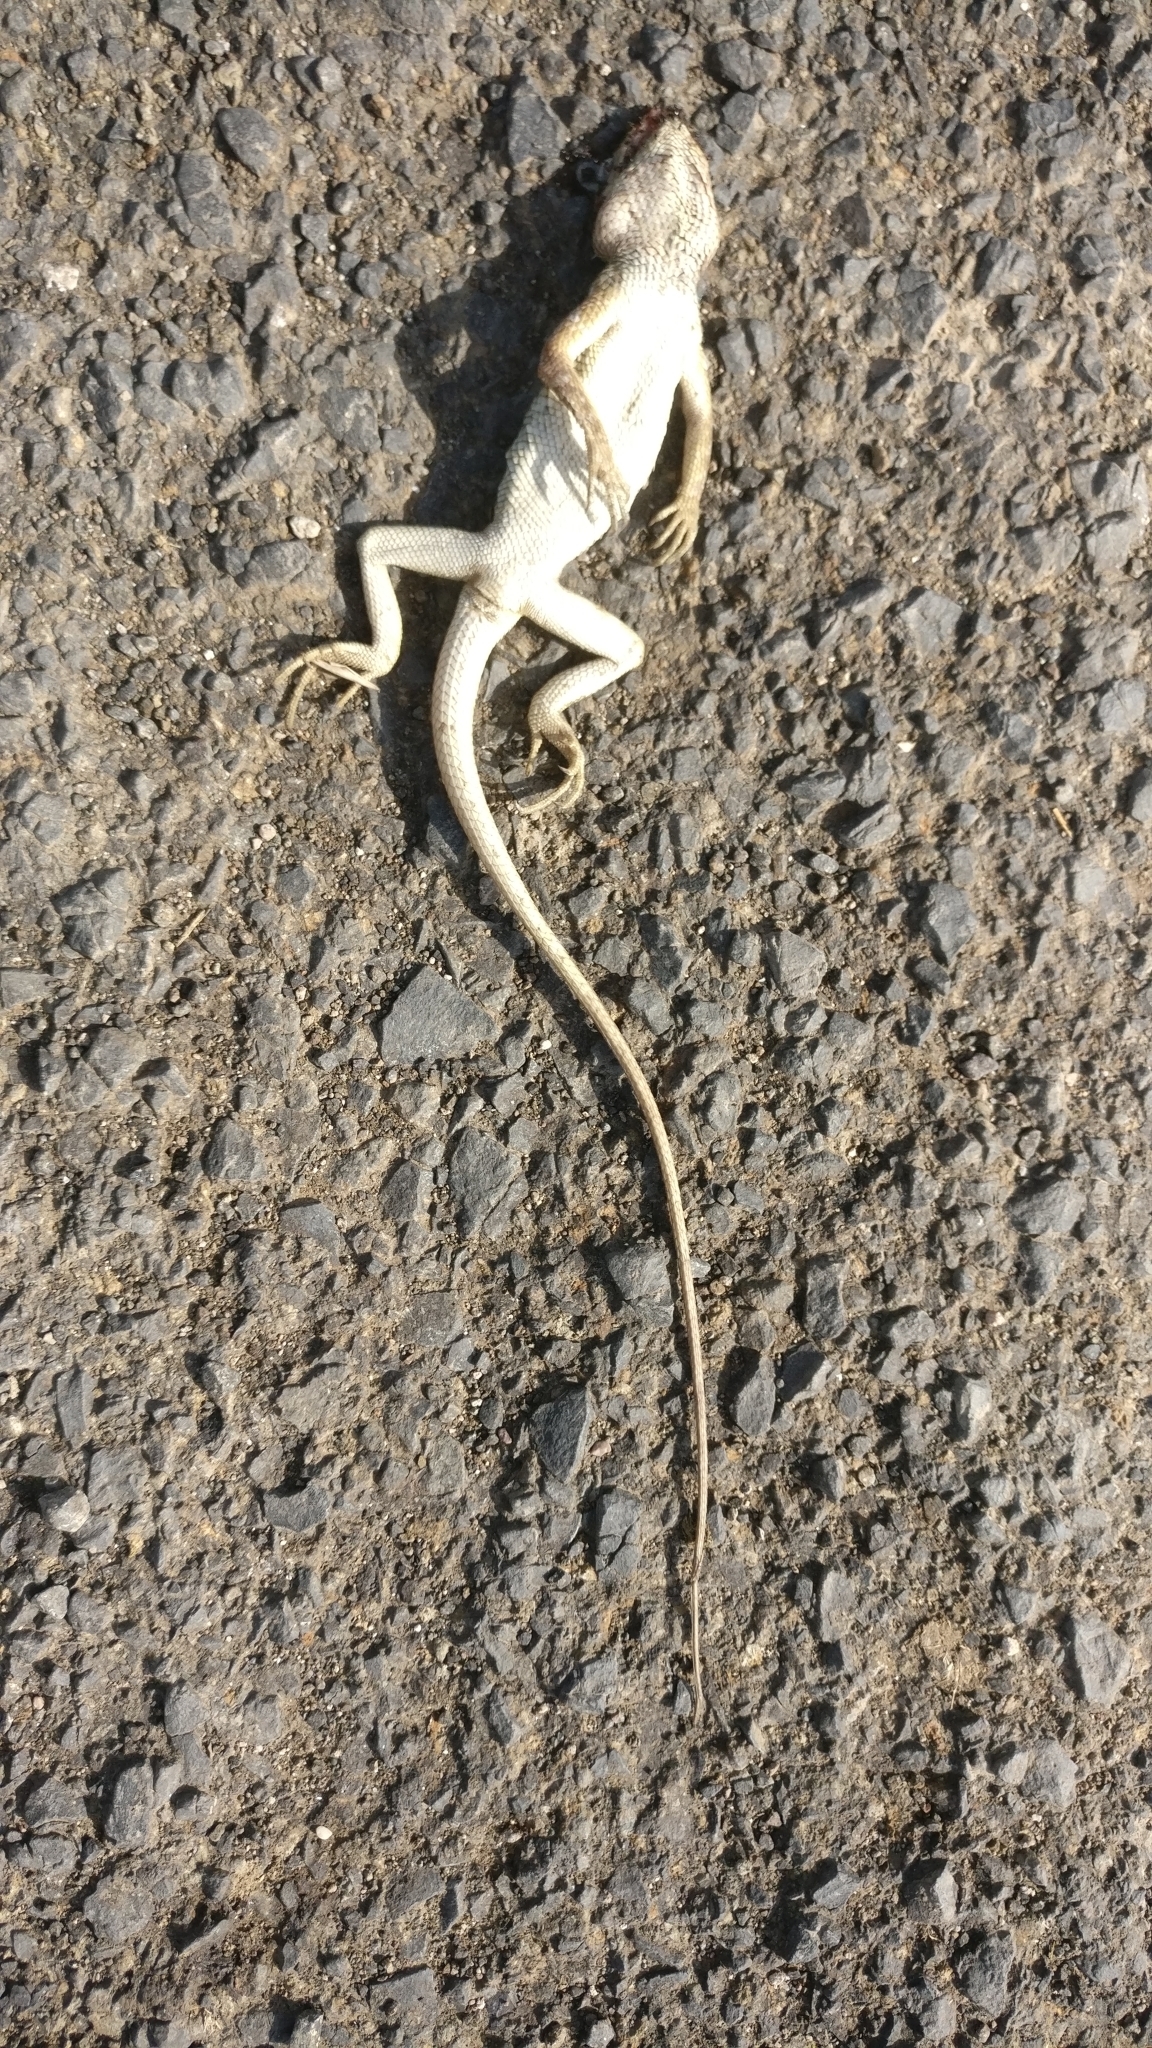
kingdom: Animalia
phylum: Chordata
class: Squamata
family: Agamidae
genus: Calotes
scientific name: Calotes versicolor
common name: Oriental garden lizard
